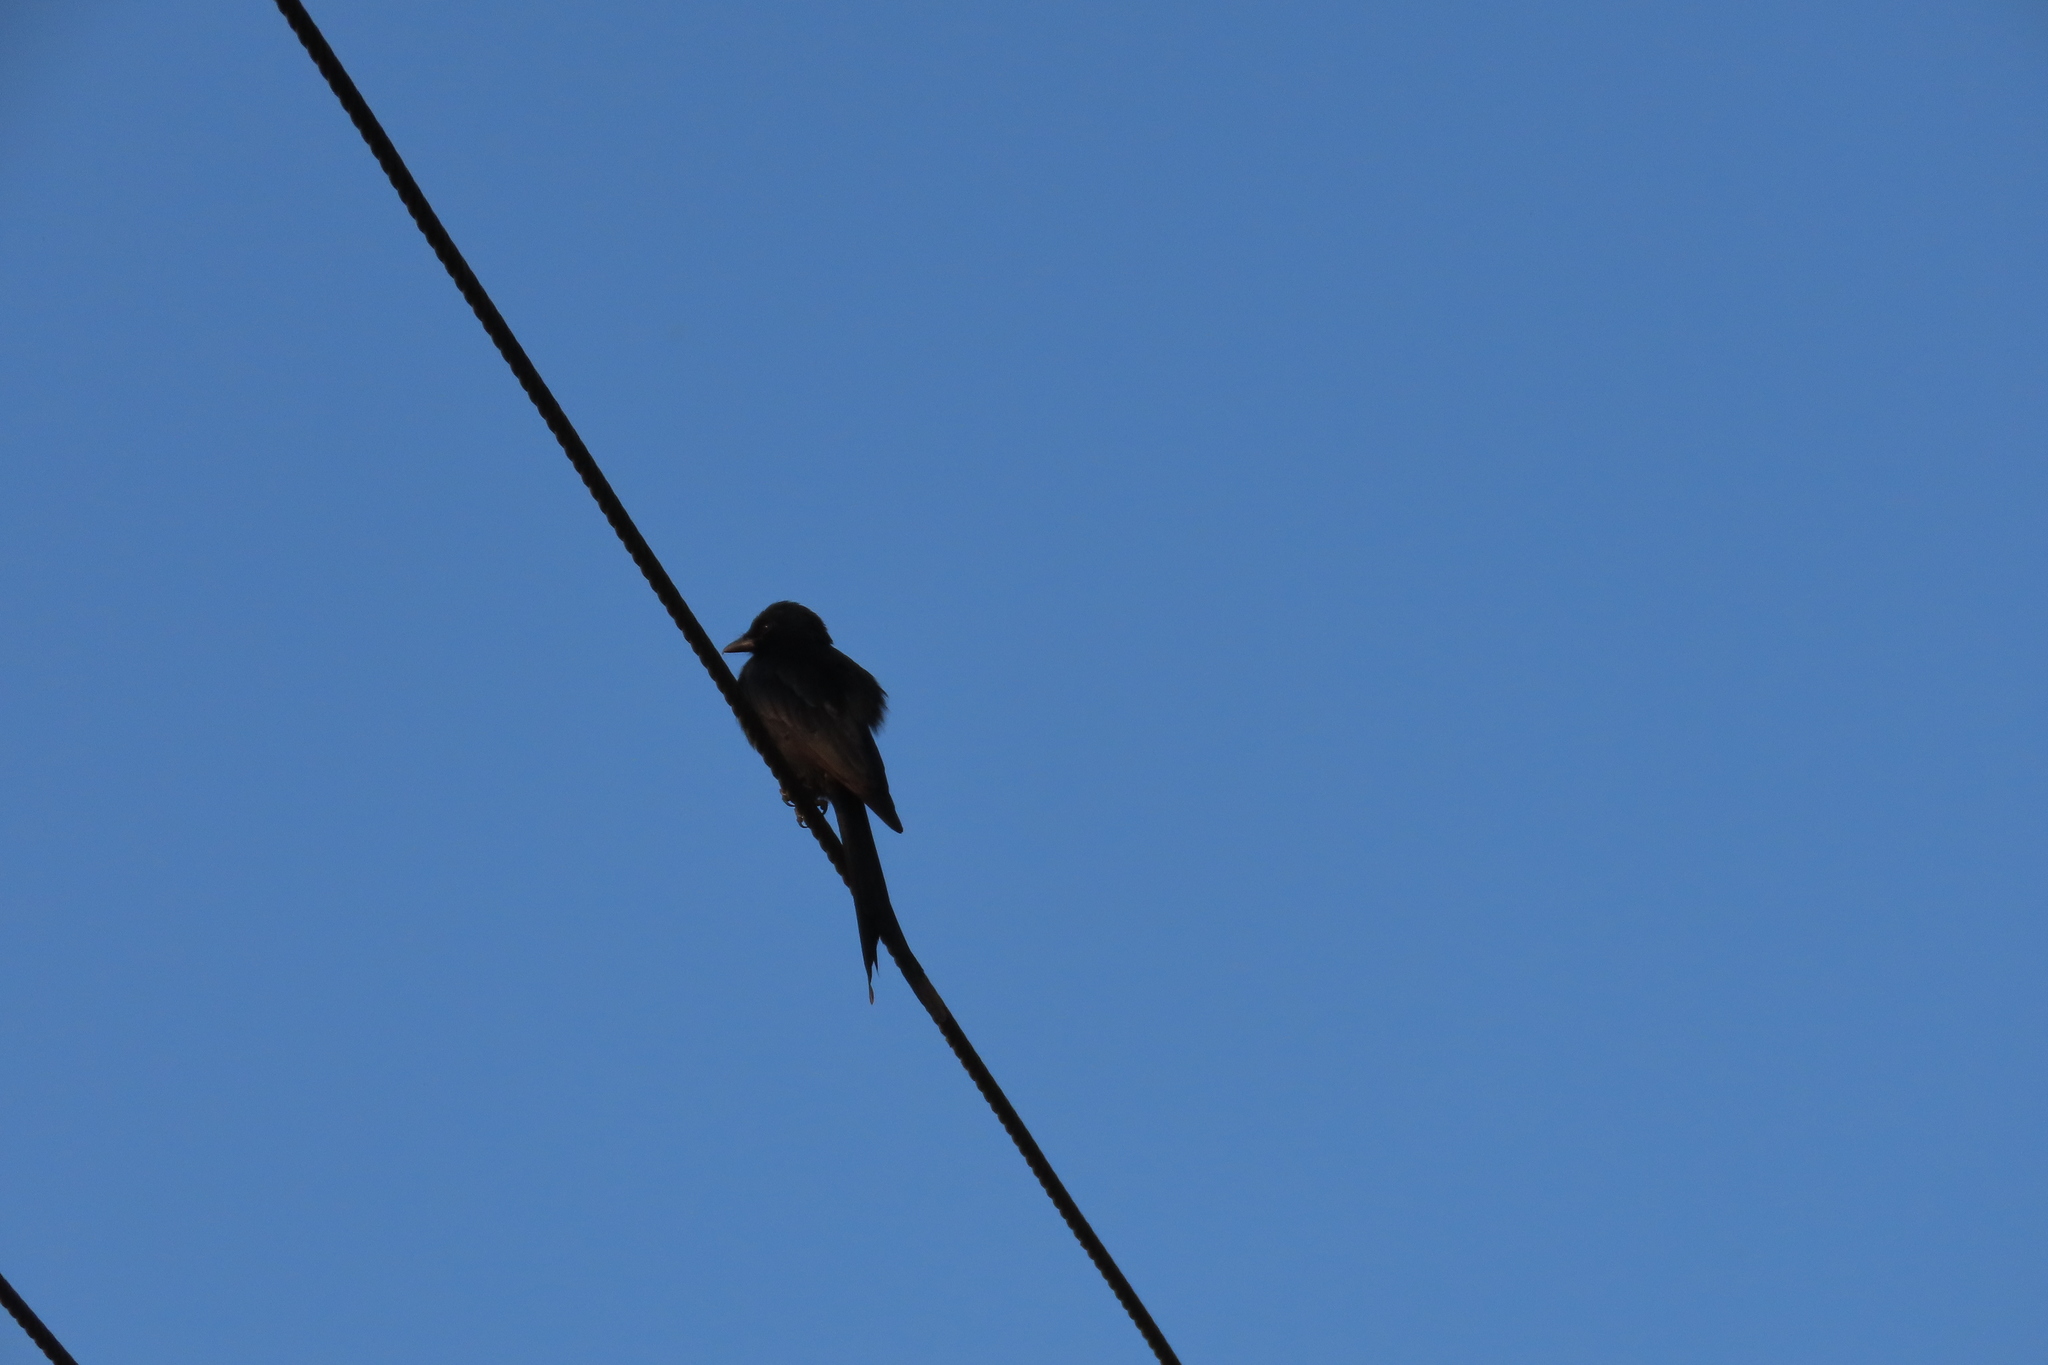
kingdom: Animalia
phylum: Chordata
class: Aves
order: Passeriformes
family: Dicruridae
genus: Dicrurus
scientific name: Dicrurus macrocercus
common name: Black drongo
